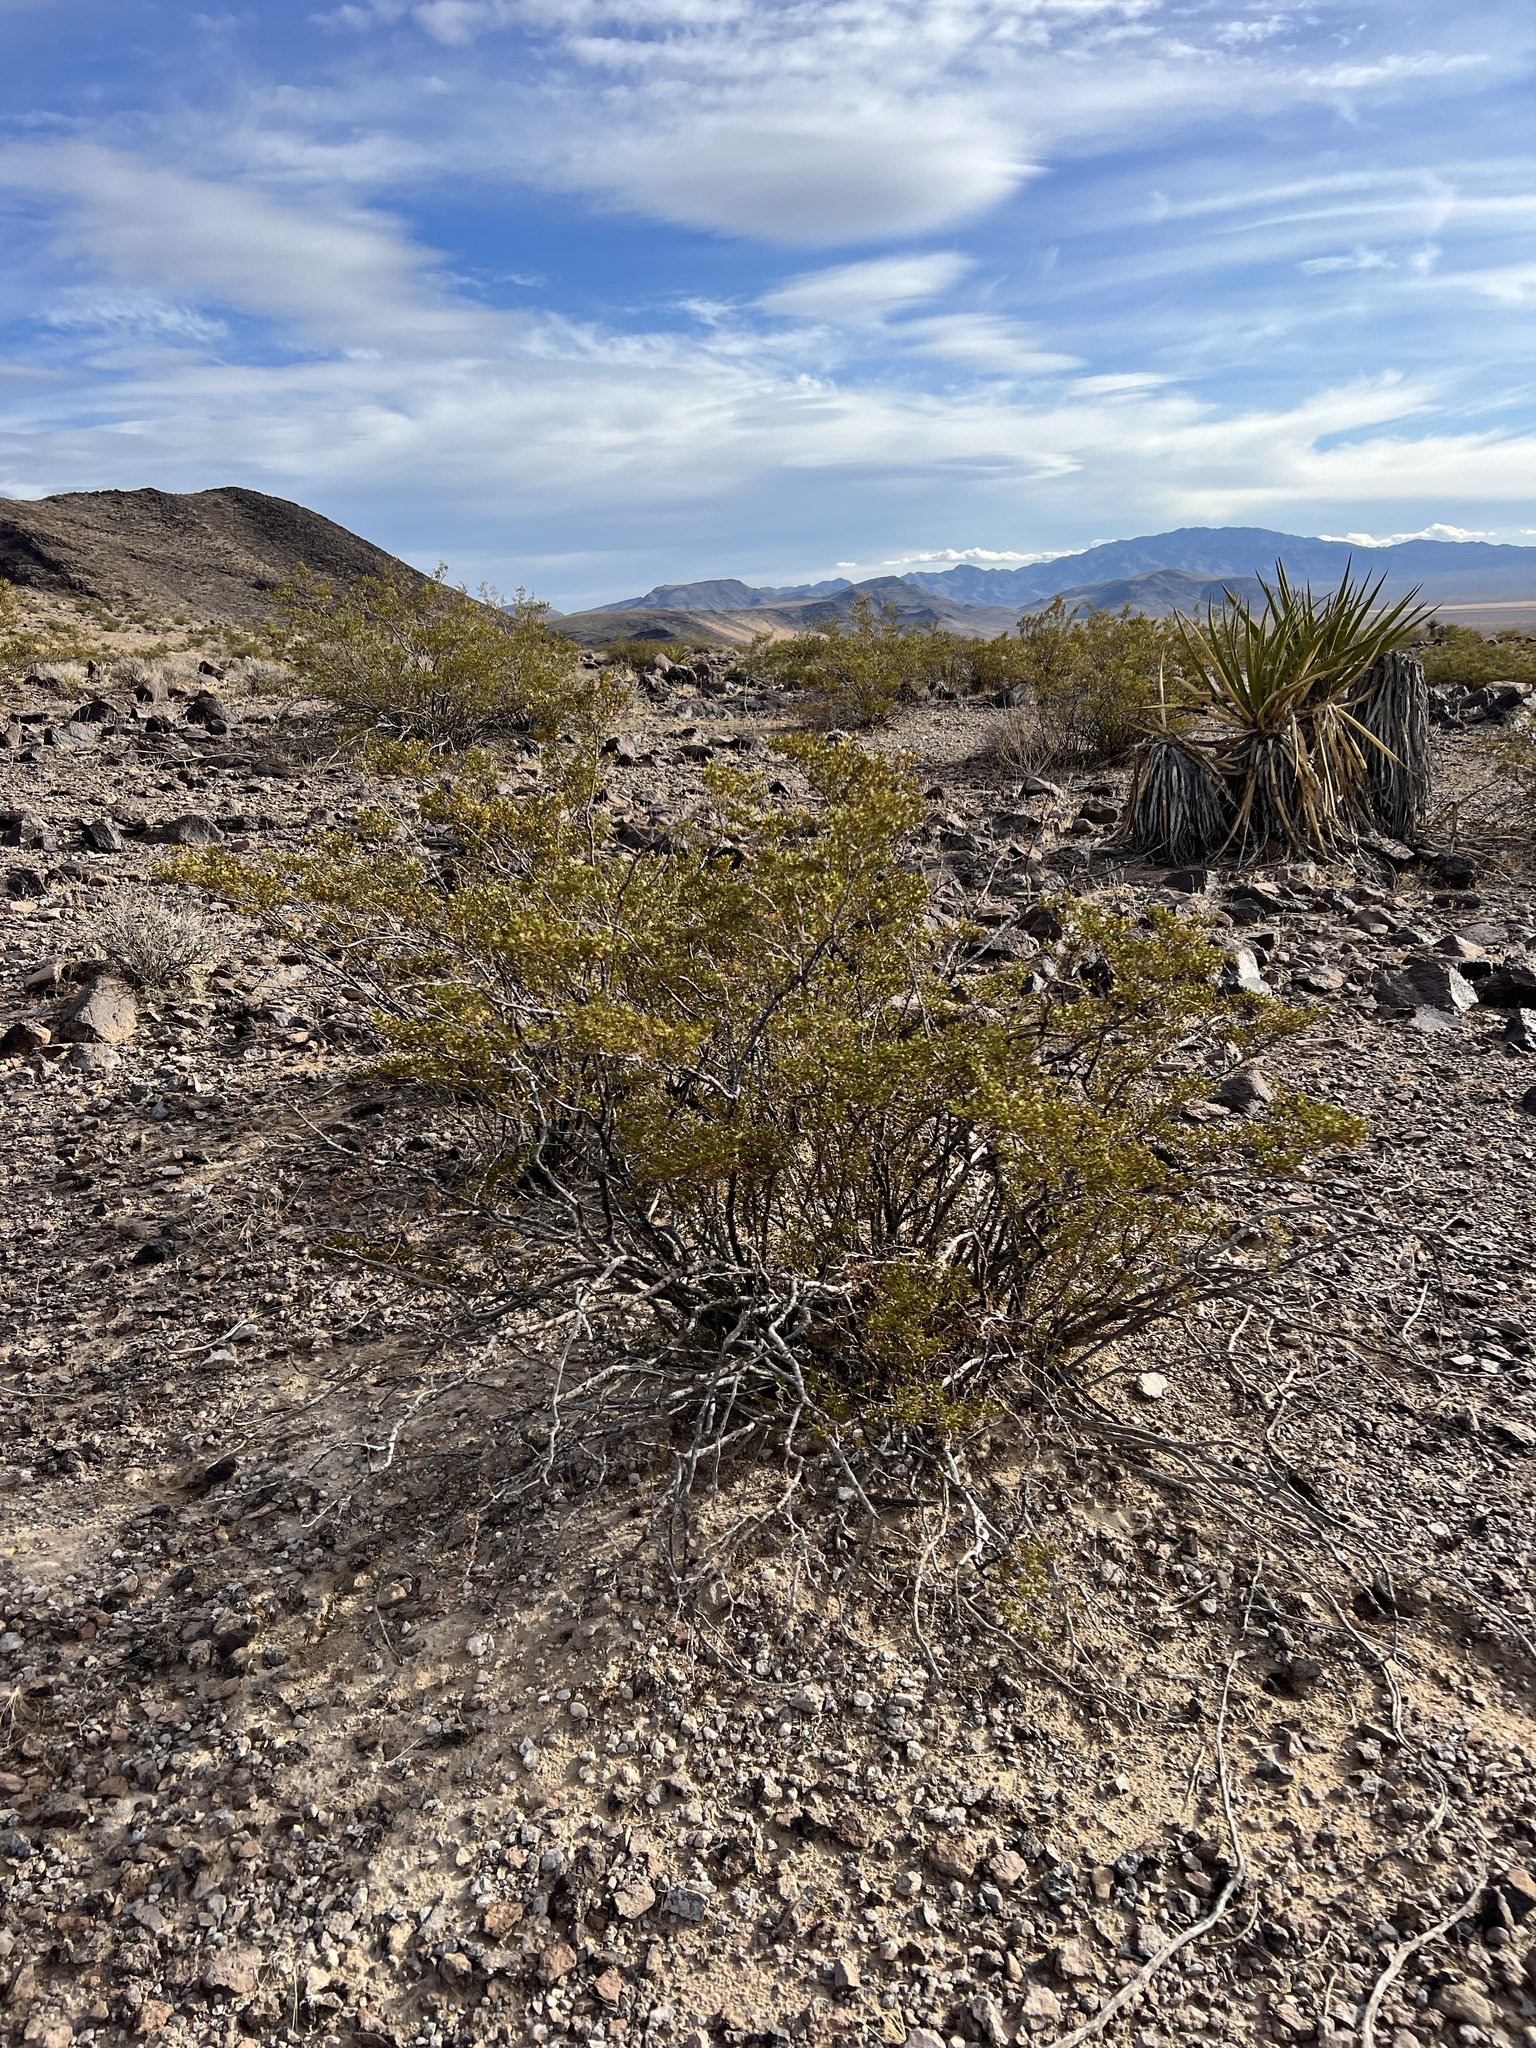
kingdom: Plantae
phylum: Tracheophyta
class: Magnoliopsida
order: Zygophyllales
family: Zygophyllaceae
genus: Larrea
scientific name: Larrea tridentata
